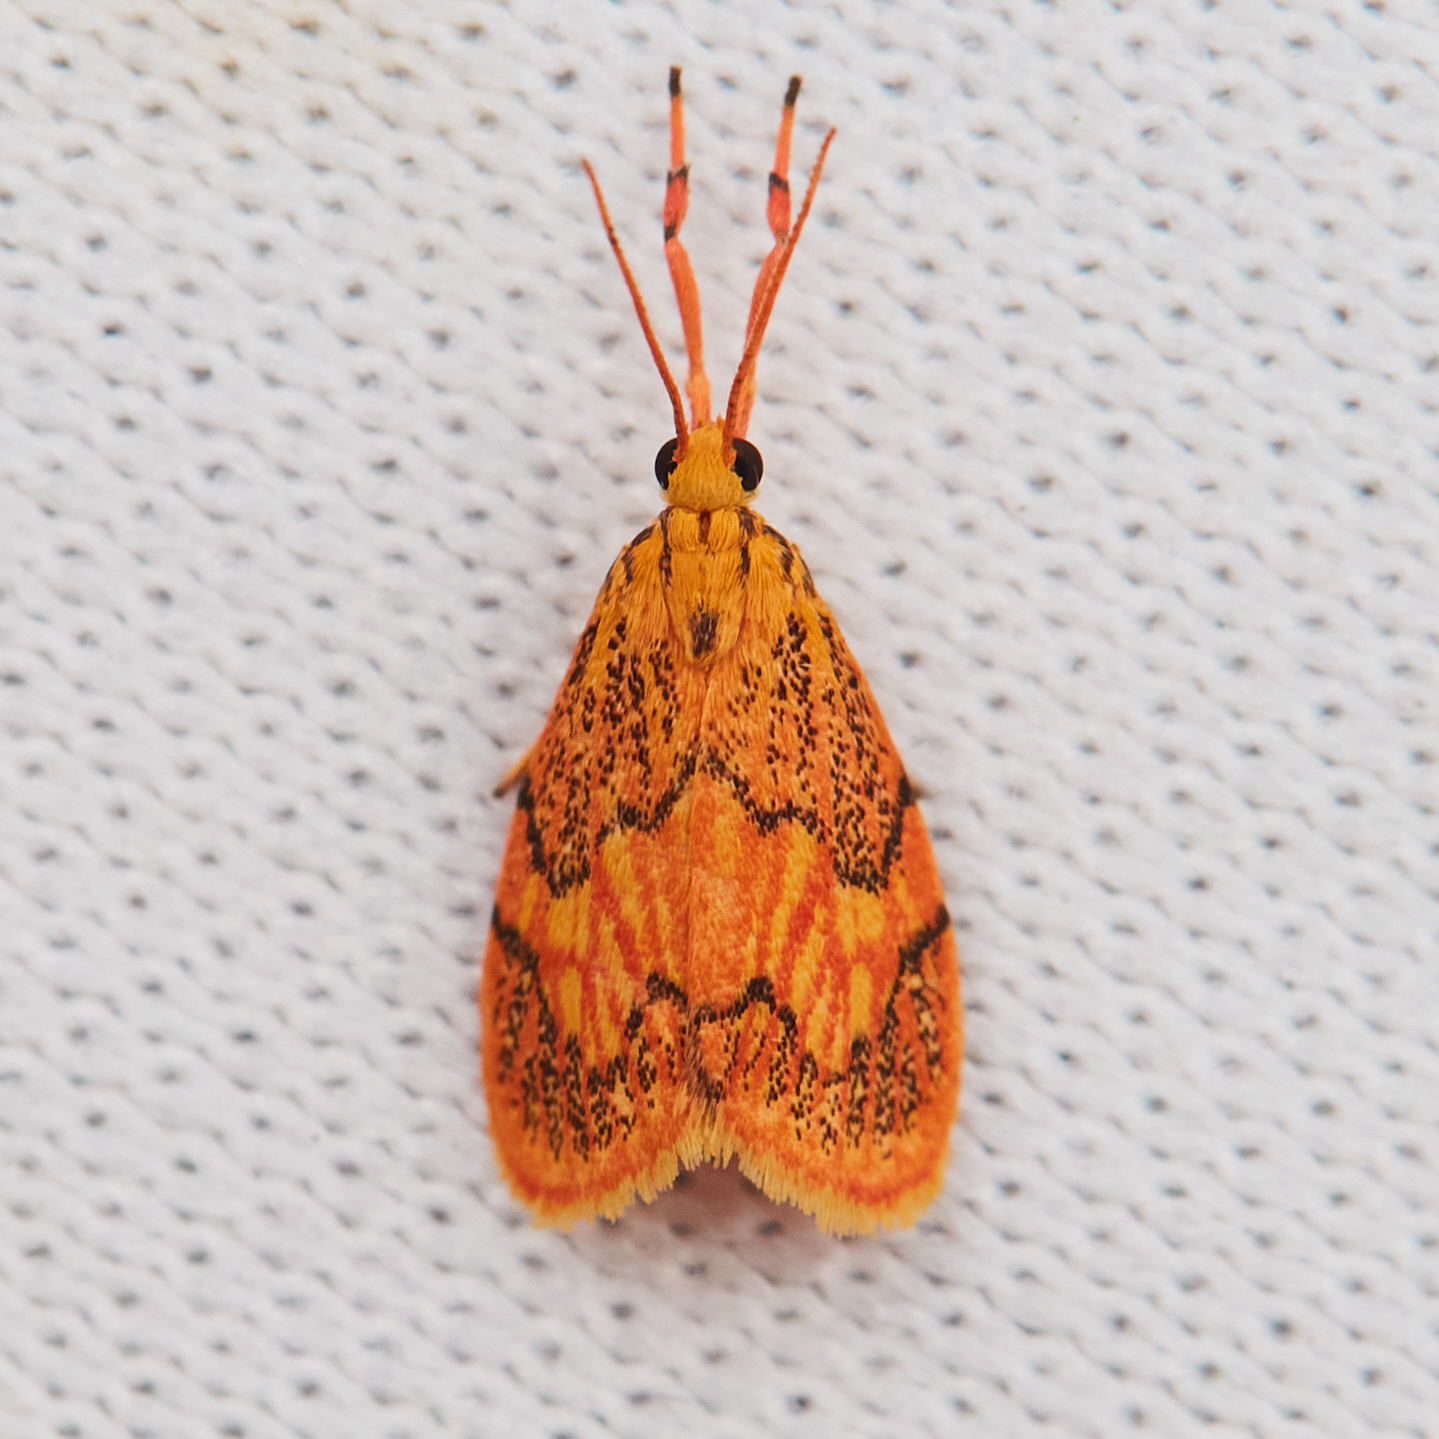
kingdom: Animalia
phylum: Arthropoda
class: Insecta
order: Lepidoptera
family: Erebidae
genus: Abrochocis
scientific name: Abrochocis esperanza
